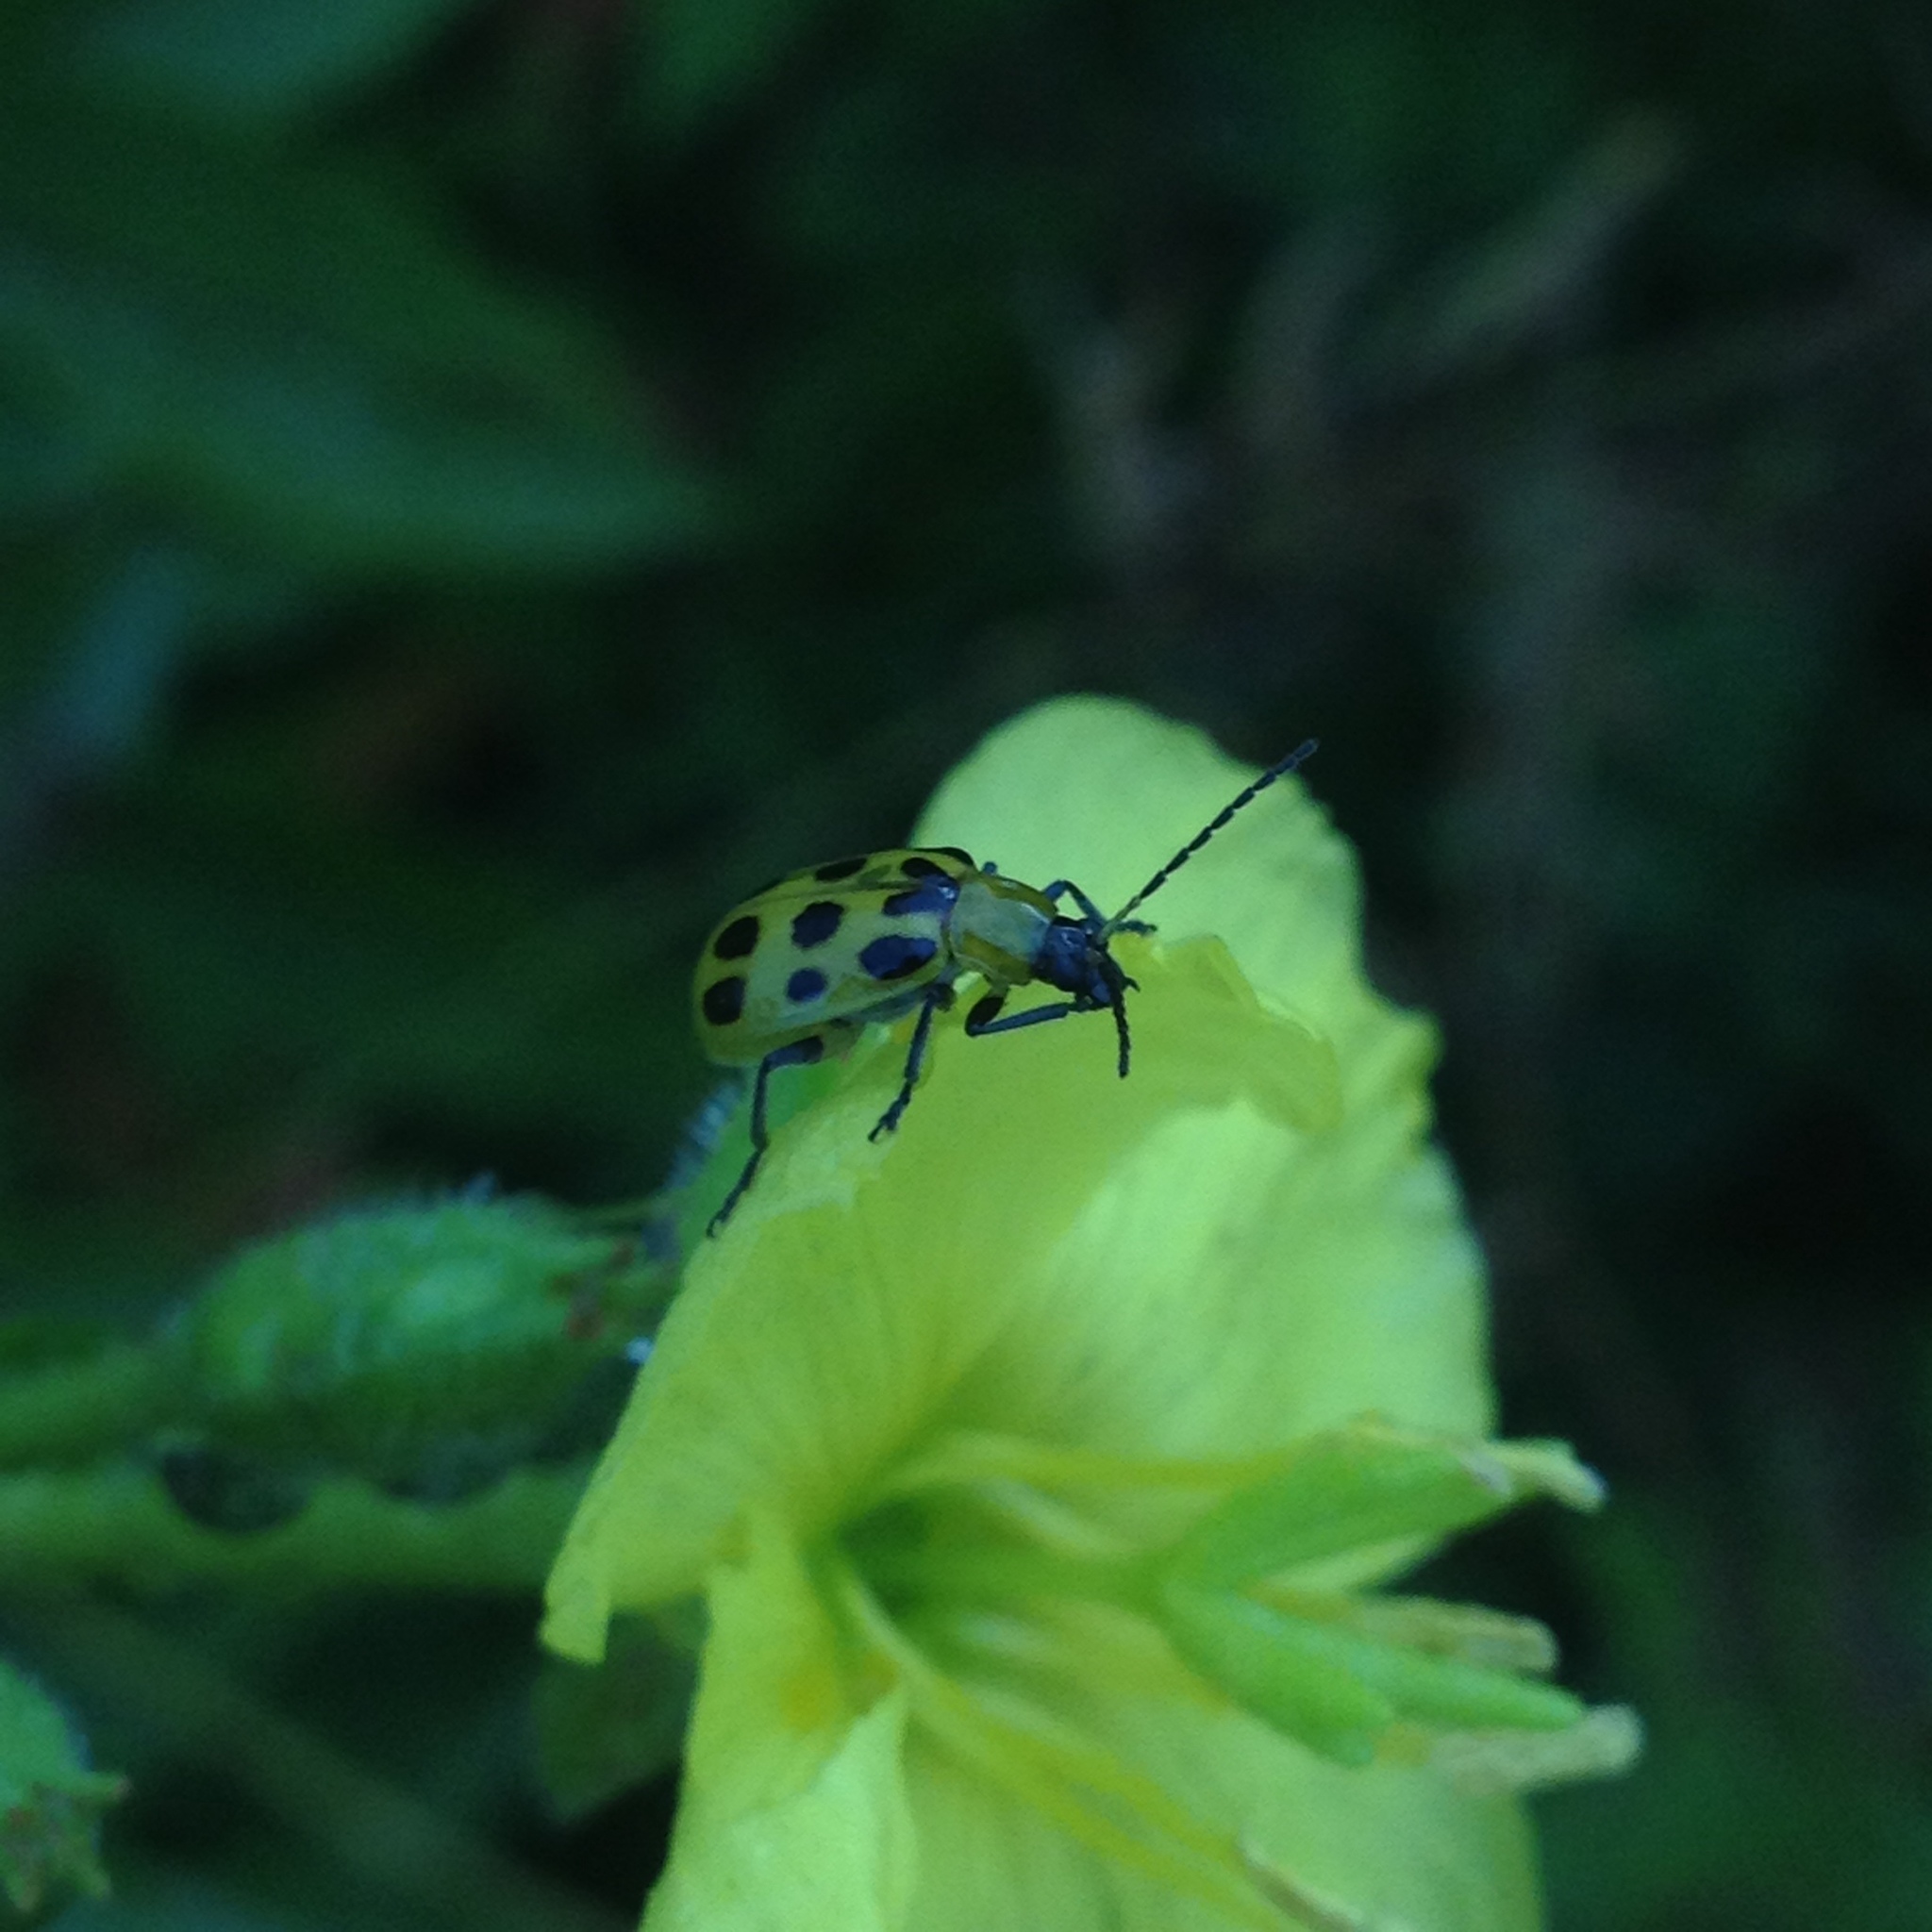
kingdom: Animalia
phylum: Arthropoda
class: Insecta
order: Coleoptera
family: Chrysomelidae
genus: Diabrotica
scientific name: Diabrotica undecimpunctata
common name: Spotted cucumber beetle
